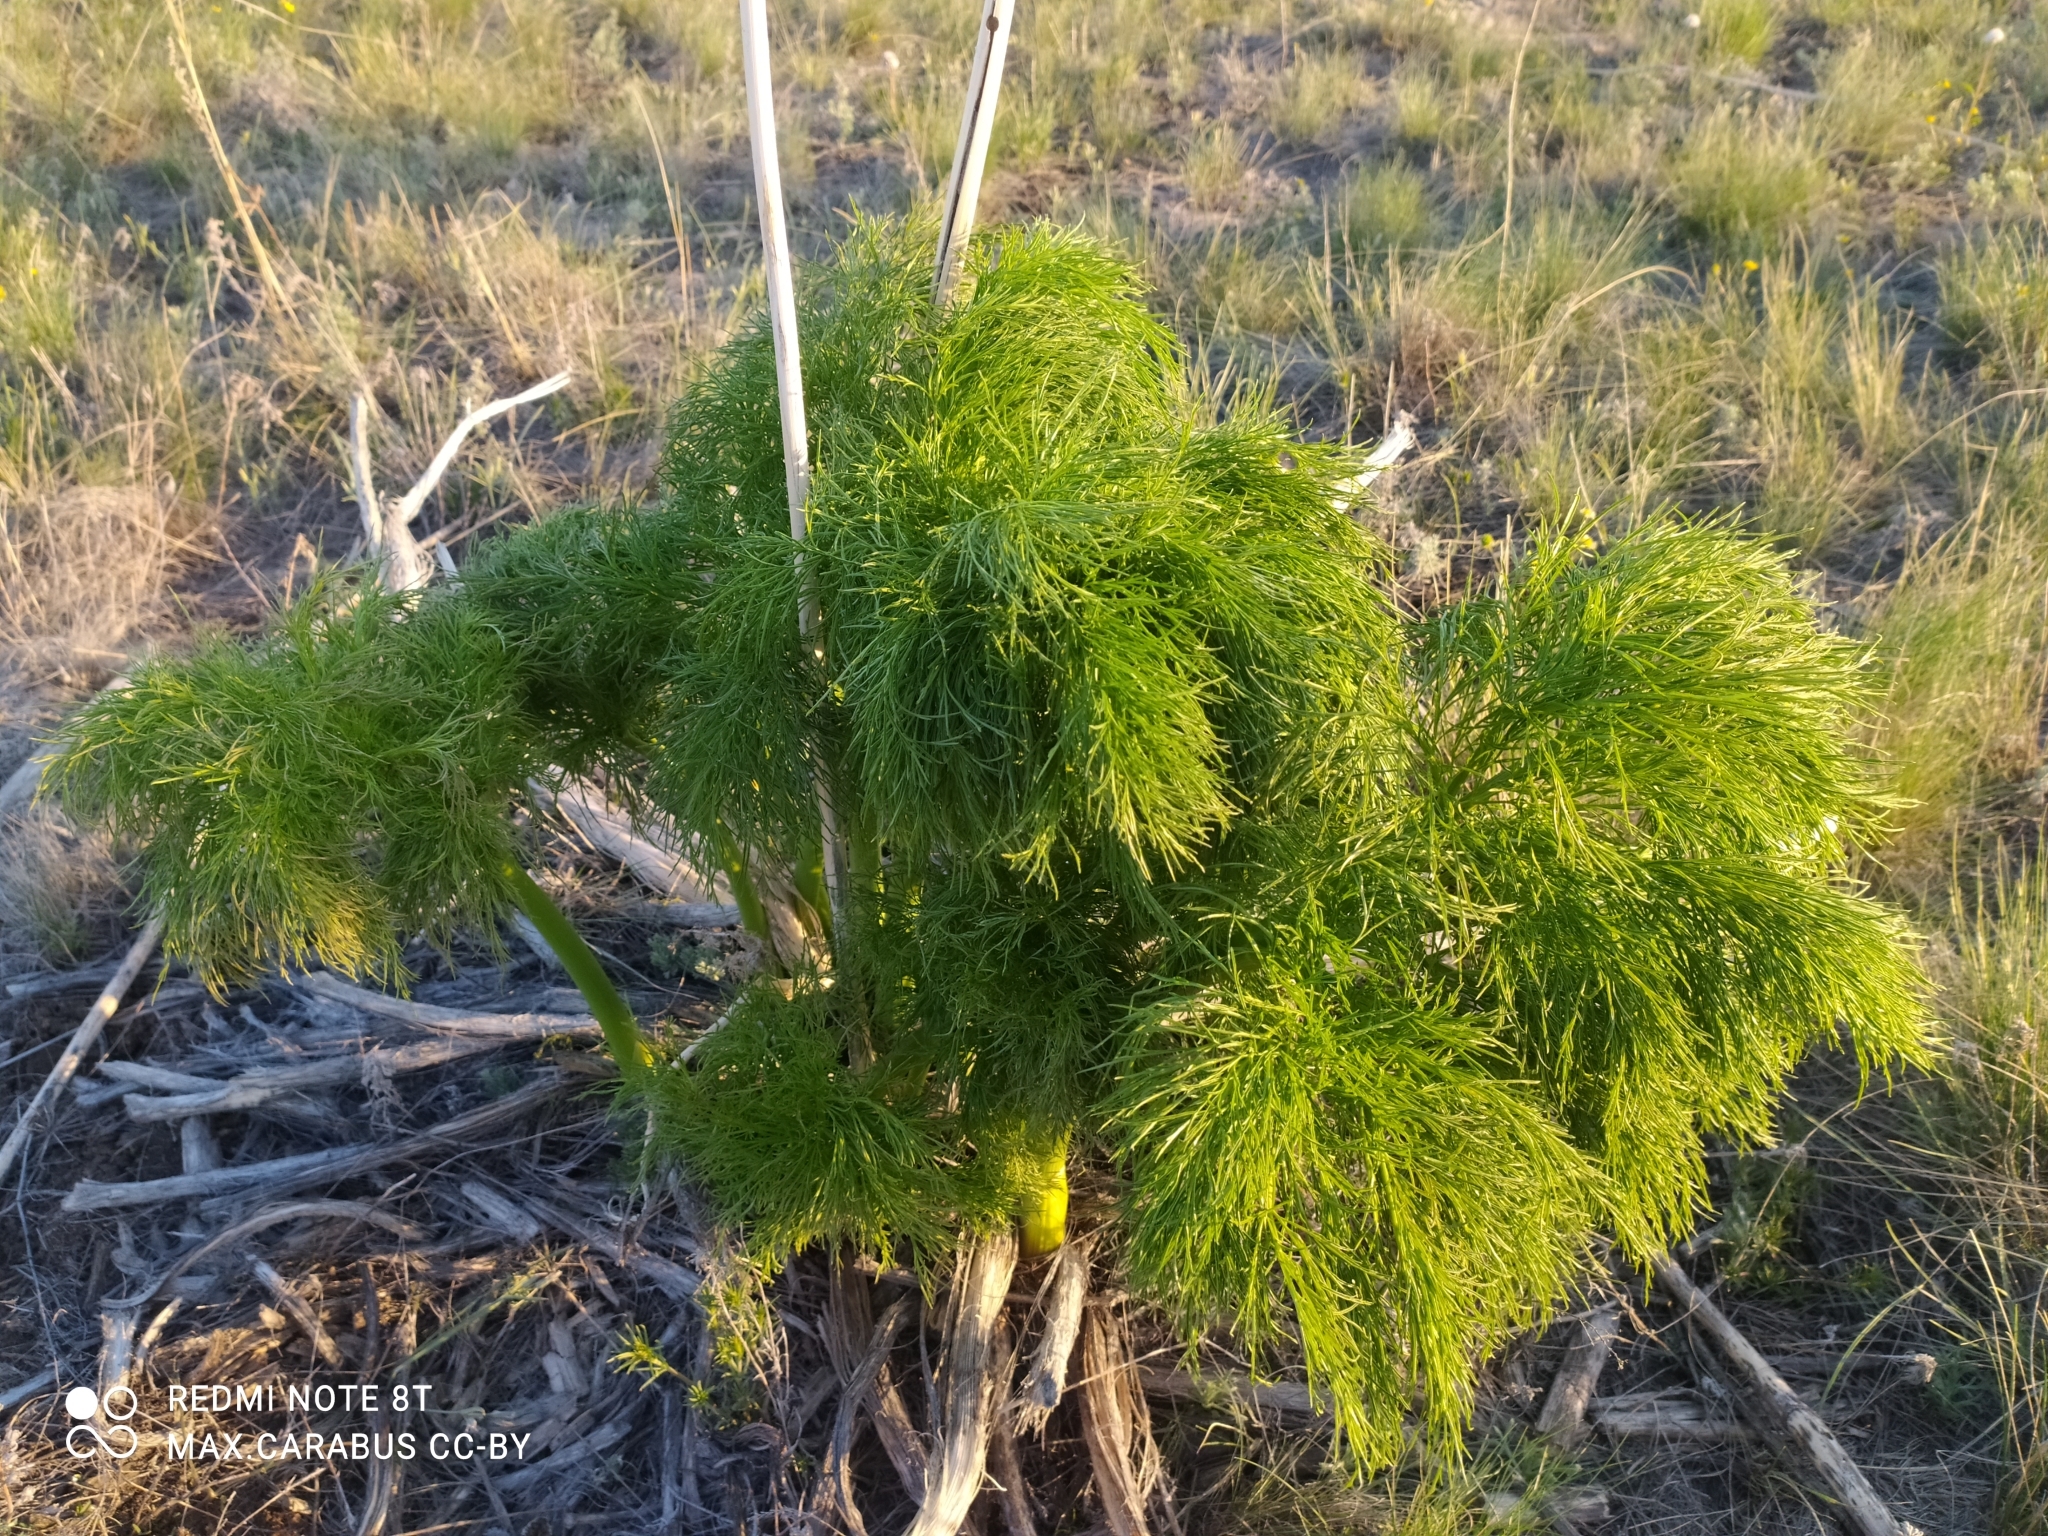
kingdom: Plantae
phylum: Tracheophyta
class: Magnoliopsida
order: Apiales
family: Apiaceae
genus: Ferula
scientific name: Ferula songarica
